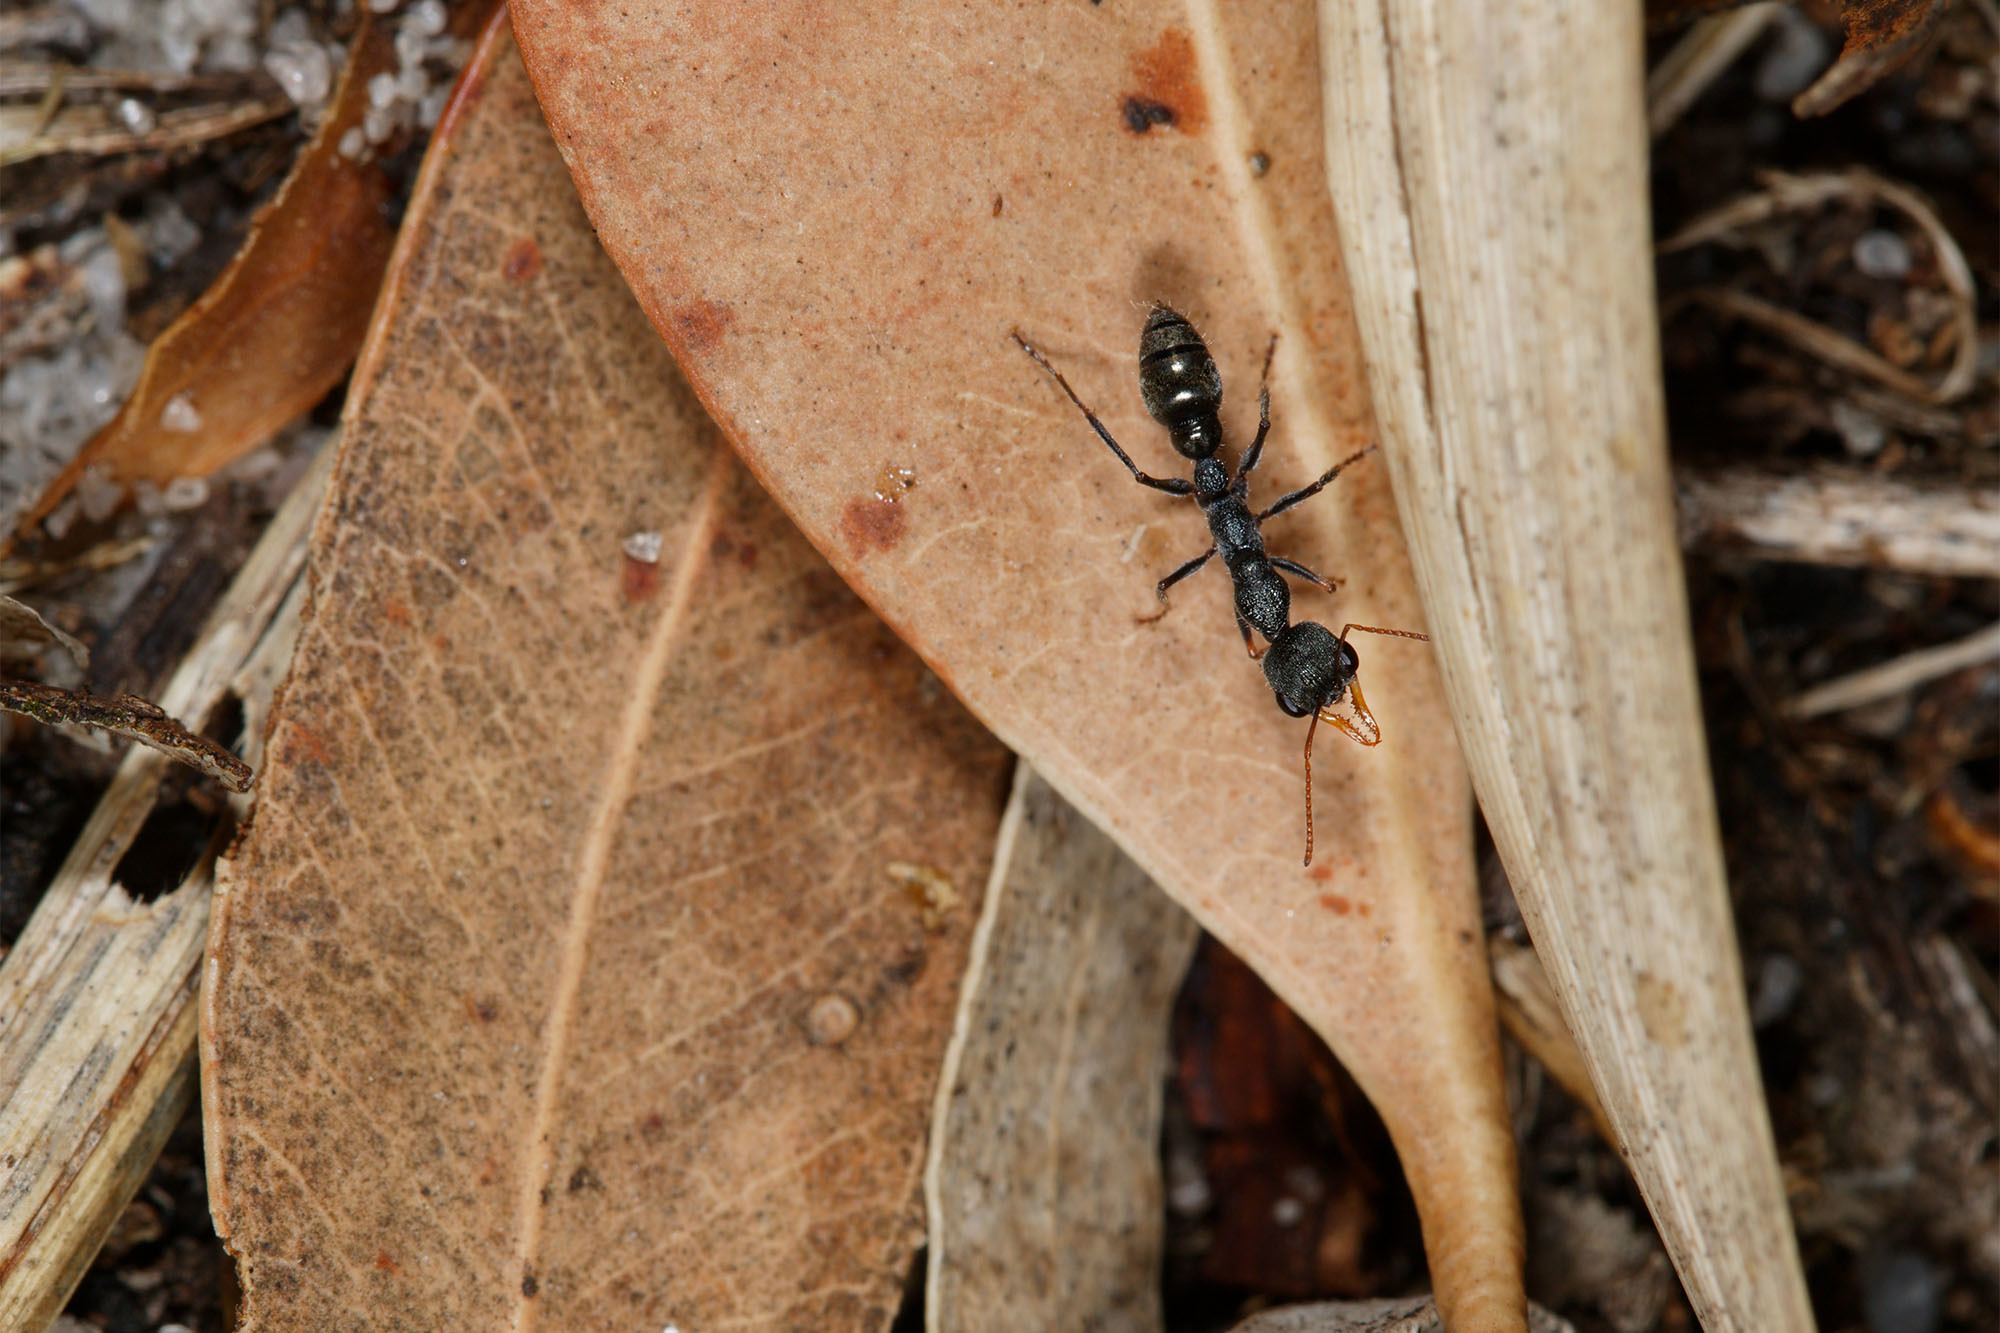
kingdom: Animalia
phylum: Arthropoda
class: Insecta
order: Hymenoptera
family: Formicidae
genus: Myrmecia
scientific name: Myrmecia urens
